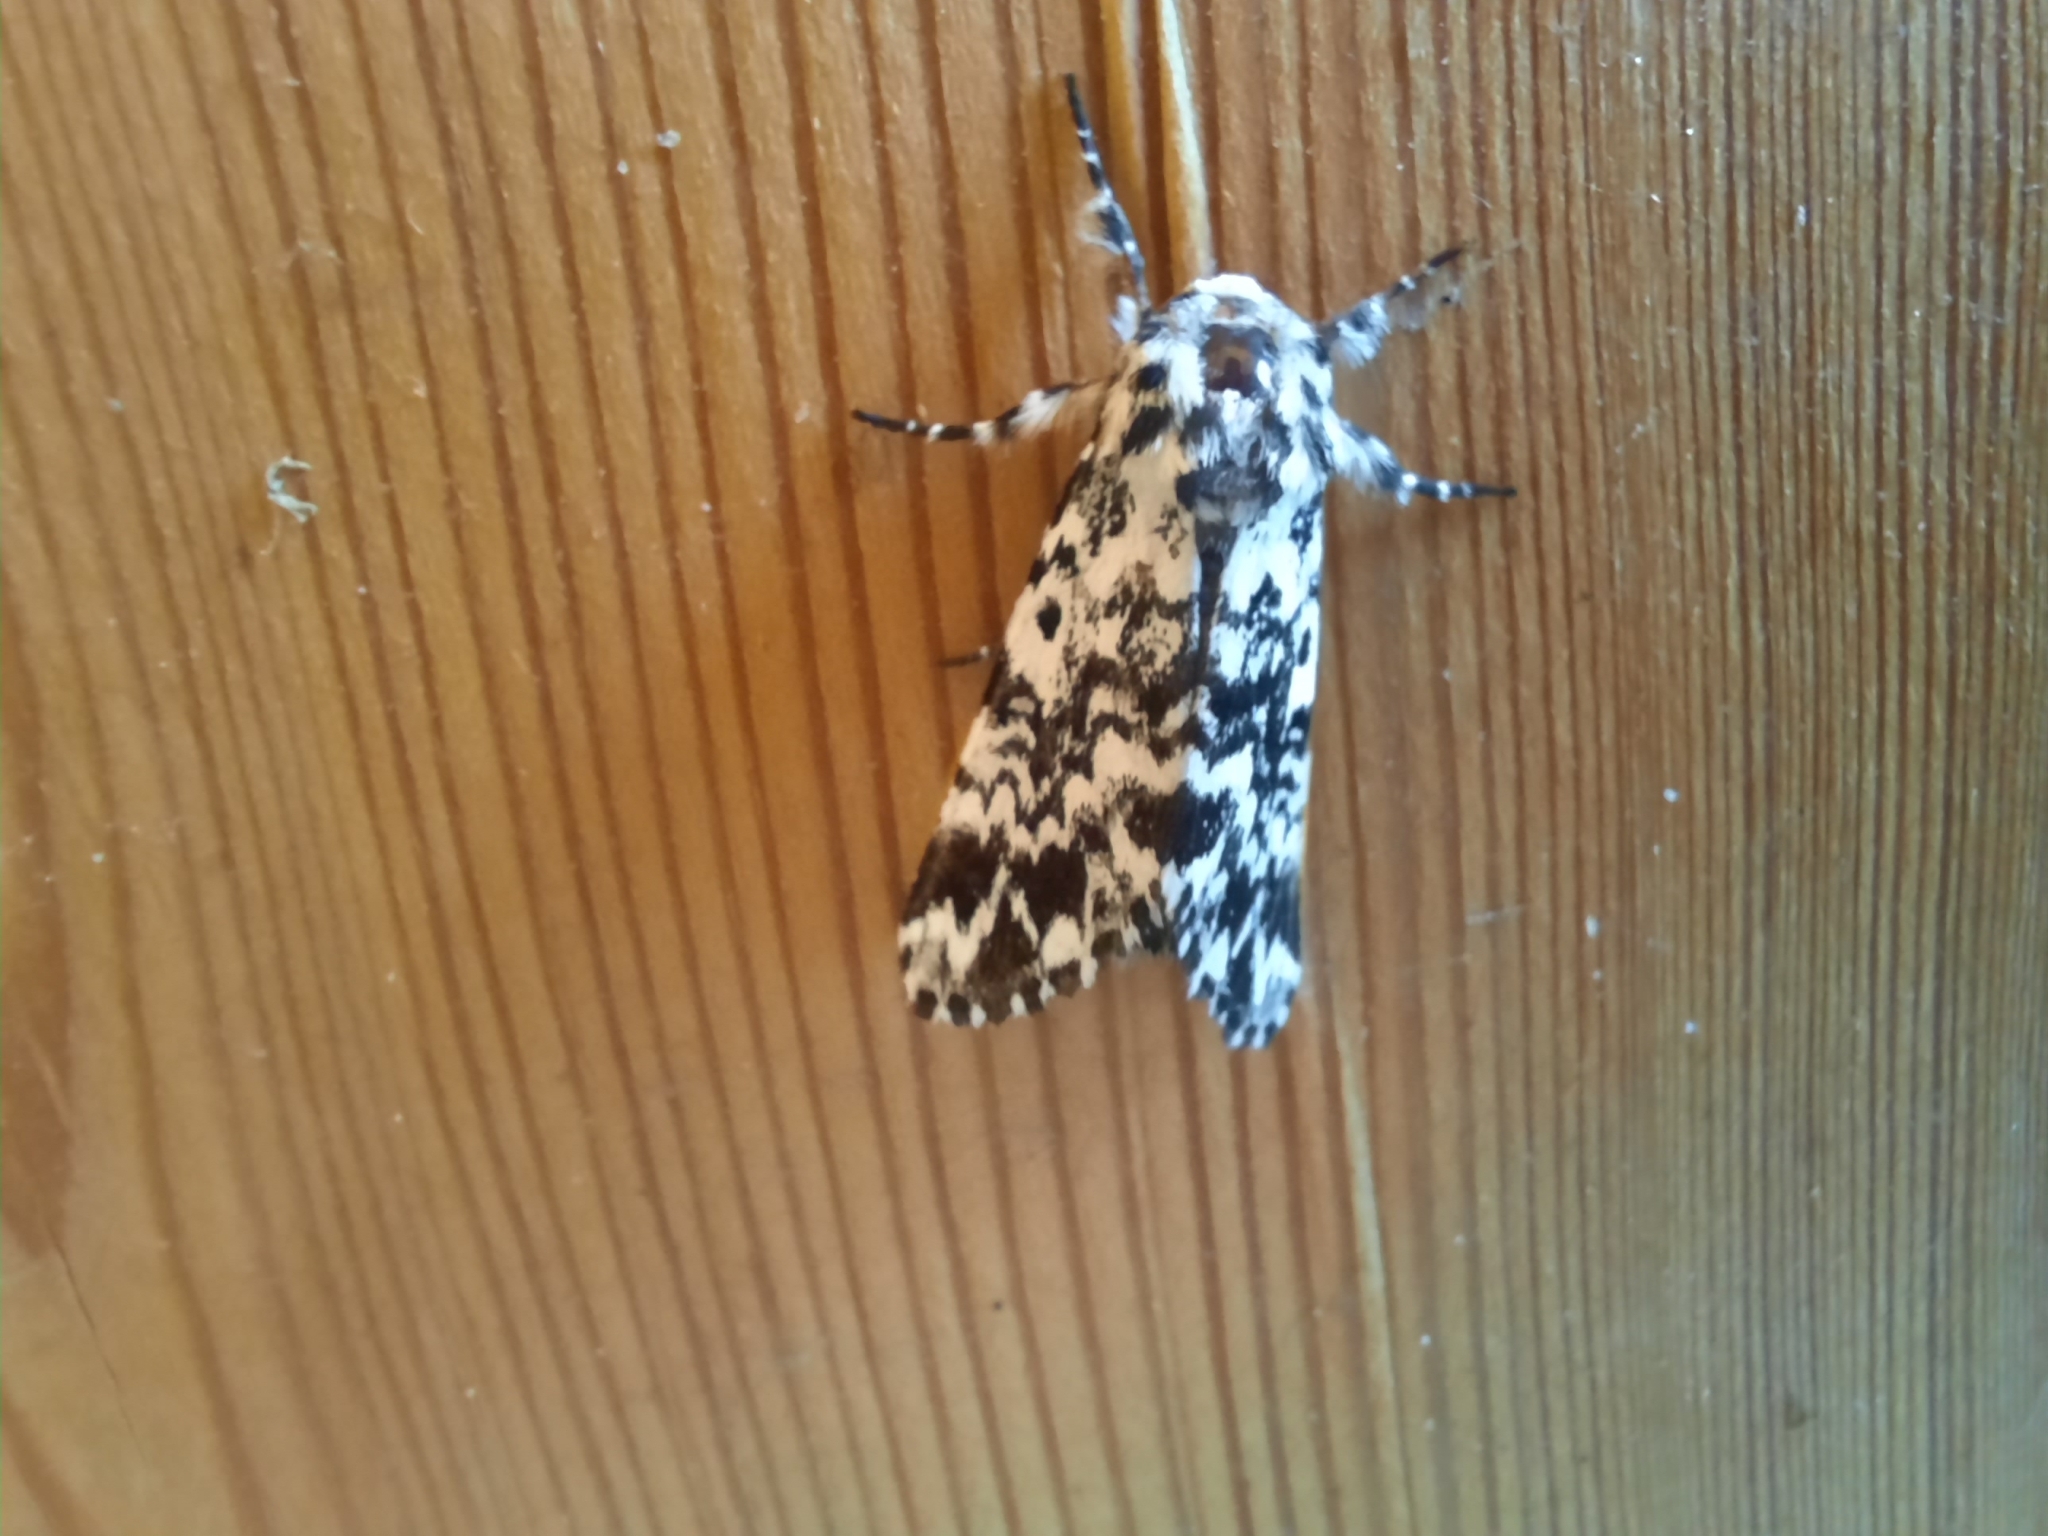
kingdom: Animalia
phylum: Arthropoda
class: Insecta
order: Lepidoptera
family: Noctuidae
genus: Panthea
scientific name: Panthea coenobita
